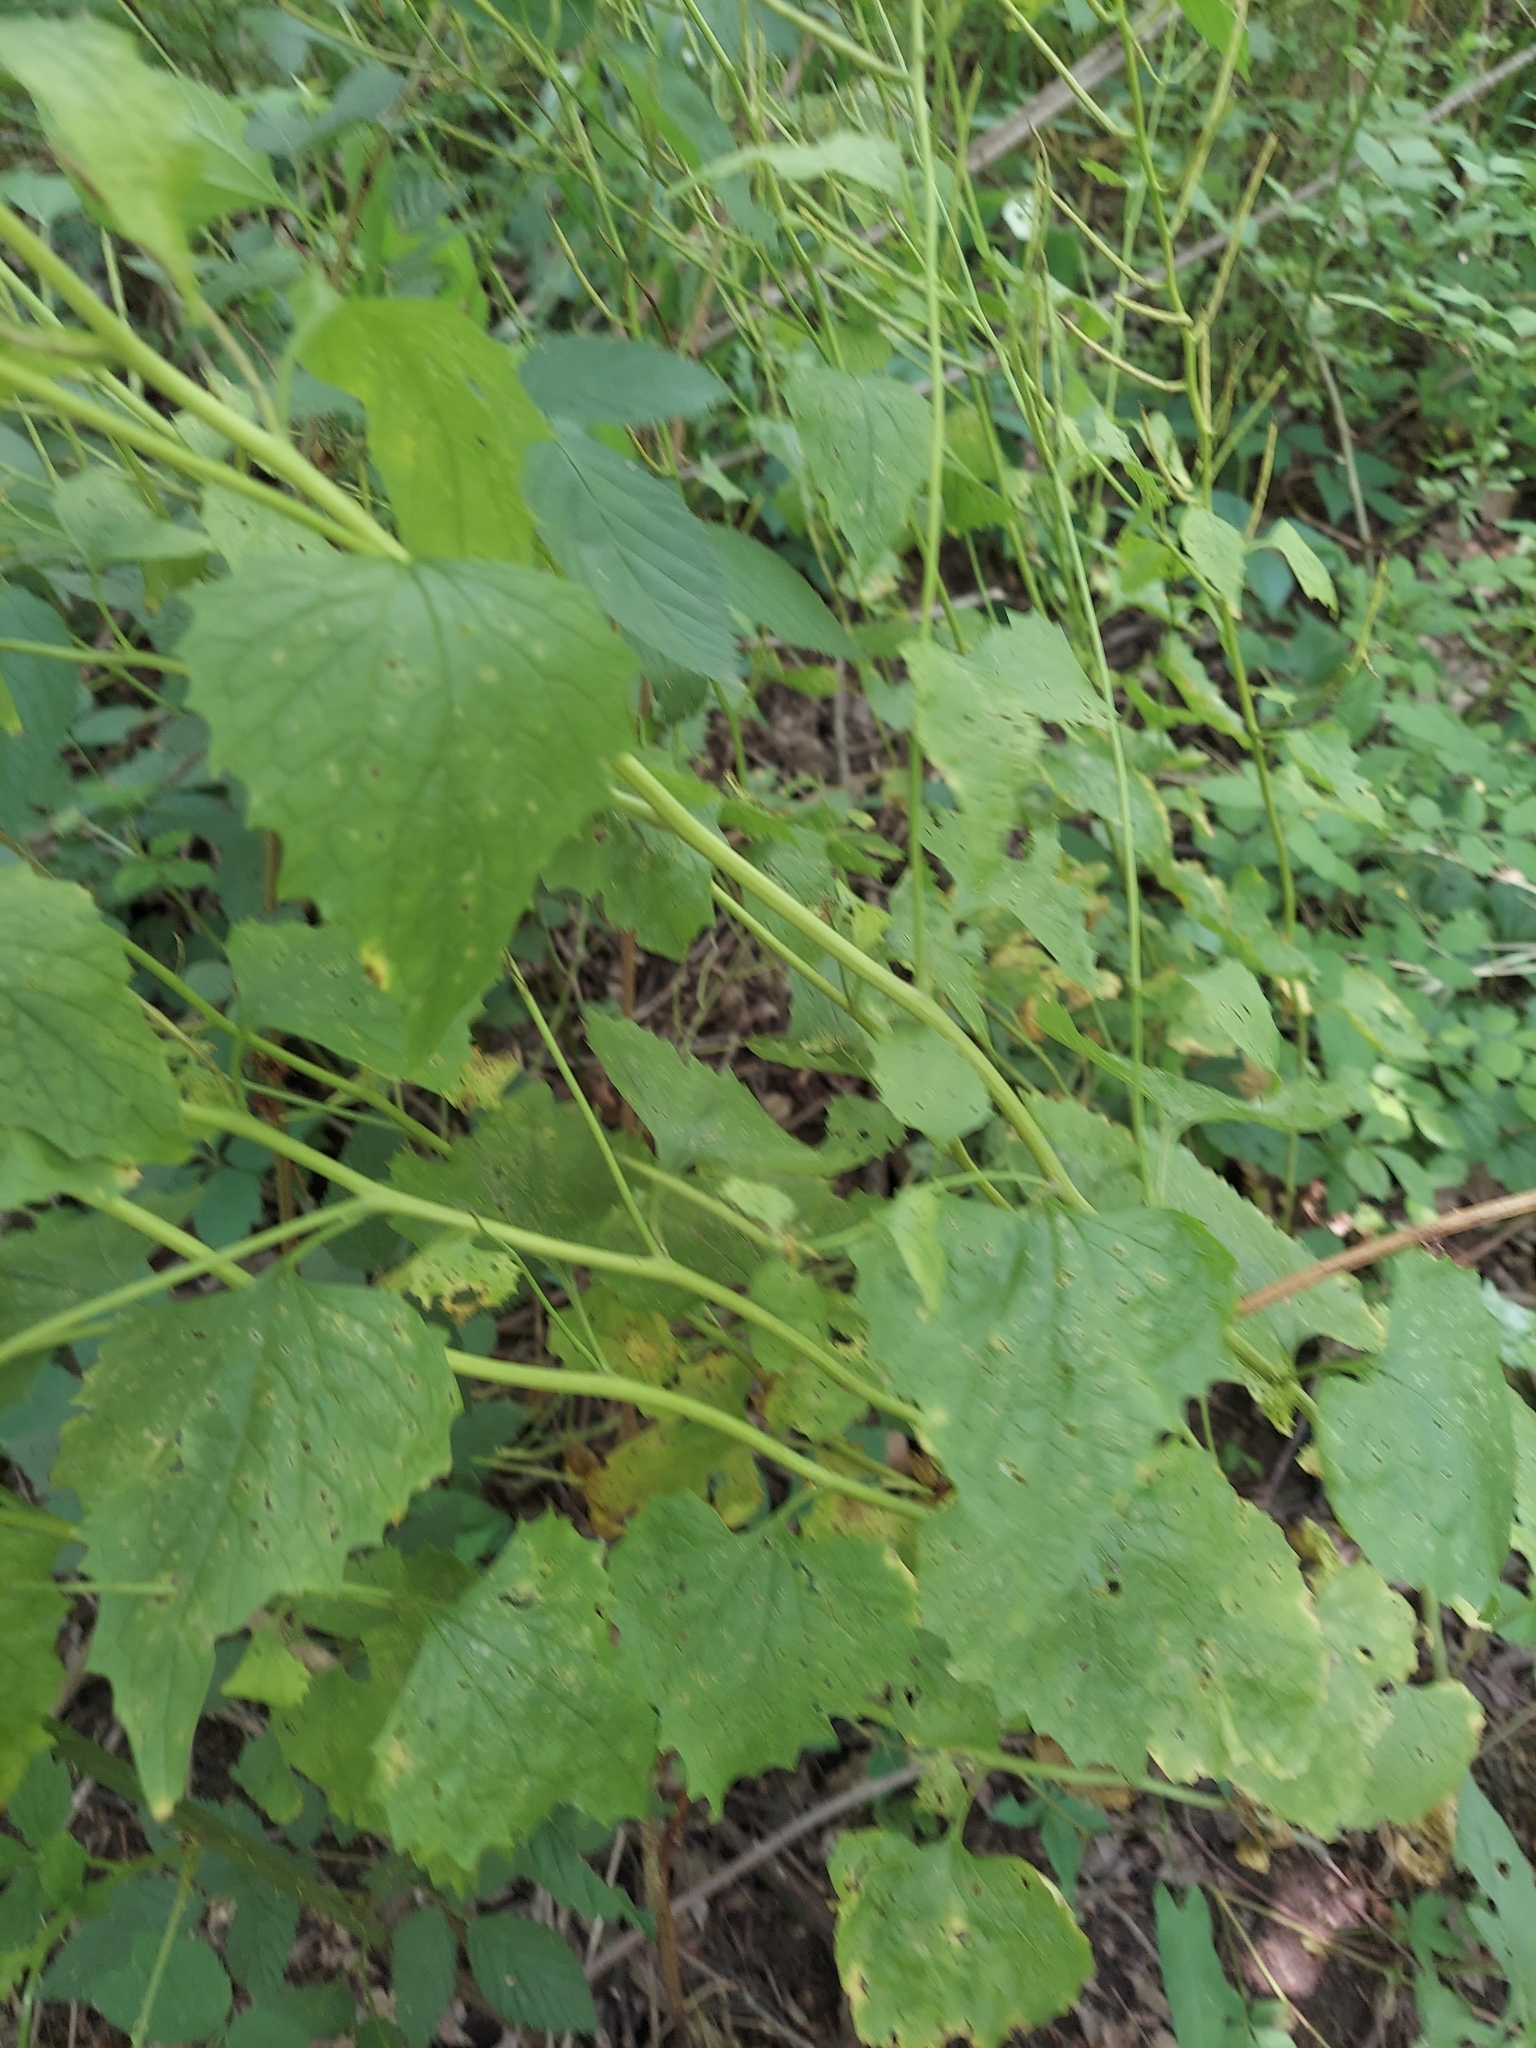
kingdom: Plantae
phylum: Tracheophyta
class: Magnoliopsida
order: Brassicales
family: Brassicaceae
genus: Alliaria
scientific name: Alliaria petiolata
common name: Garlic mustard
